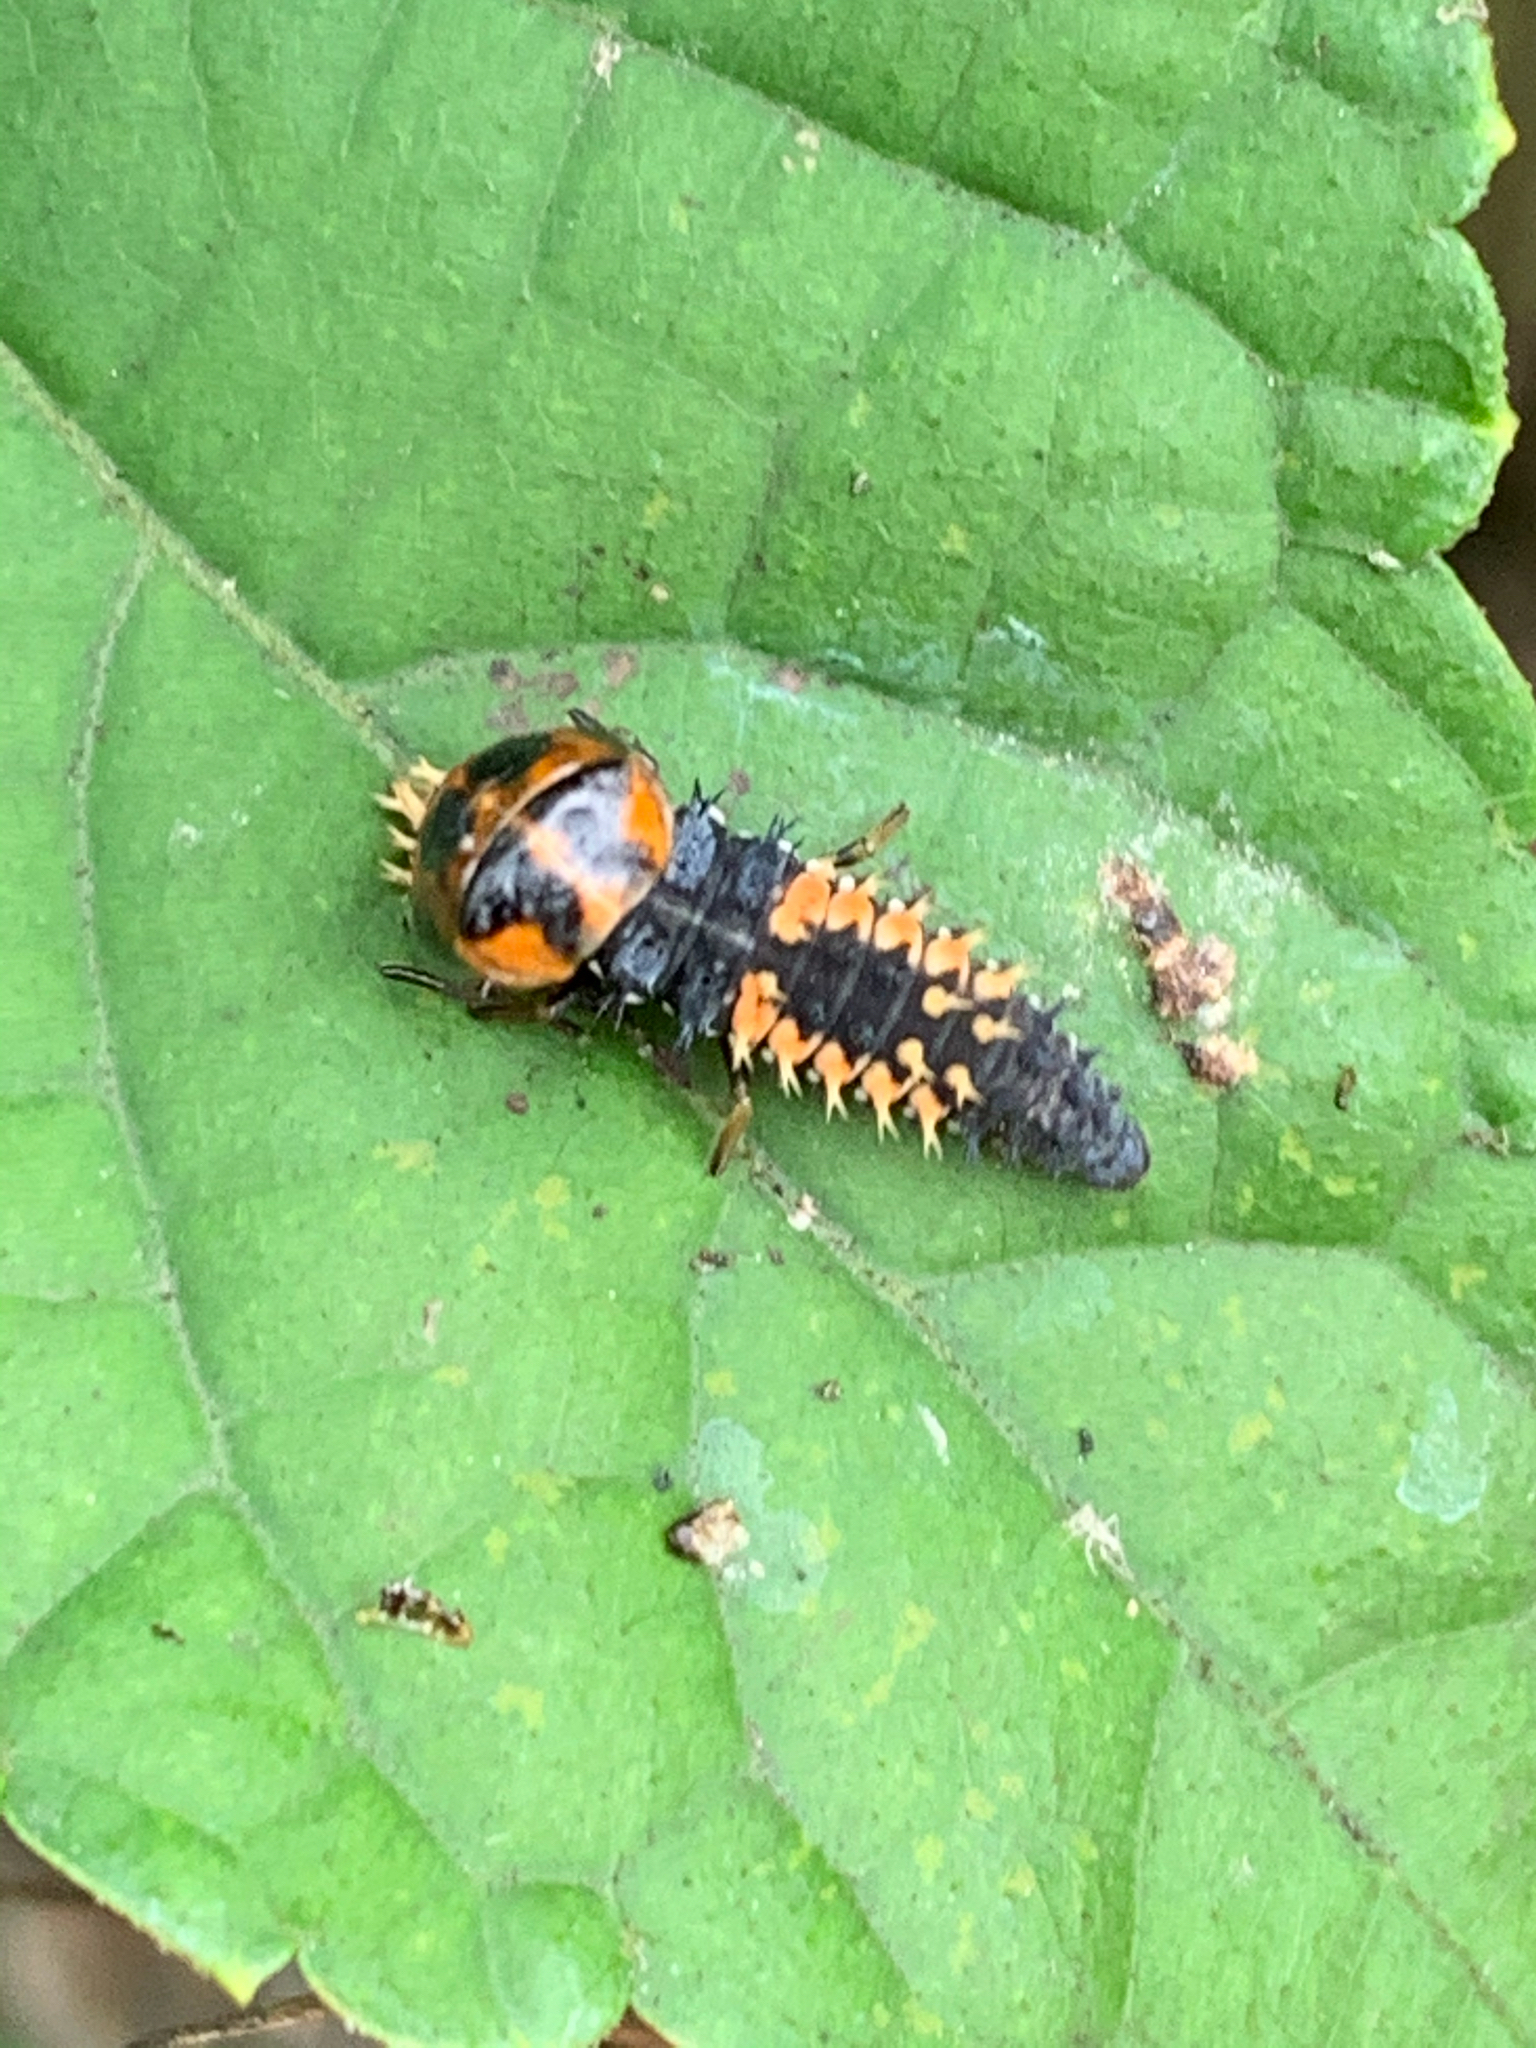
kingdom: Animalia
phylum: Arthropoda
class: Insecta
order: Coleoptera
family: Coccinellidae
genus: Harmonia
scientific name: Harmonia axyridis
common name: Harlequin ladybird
